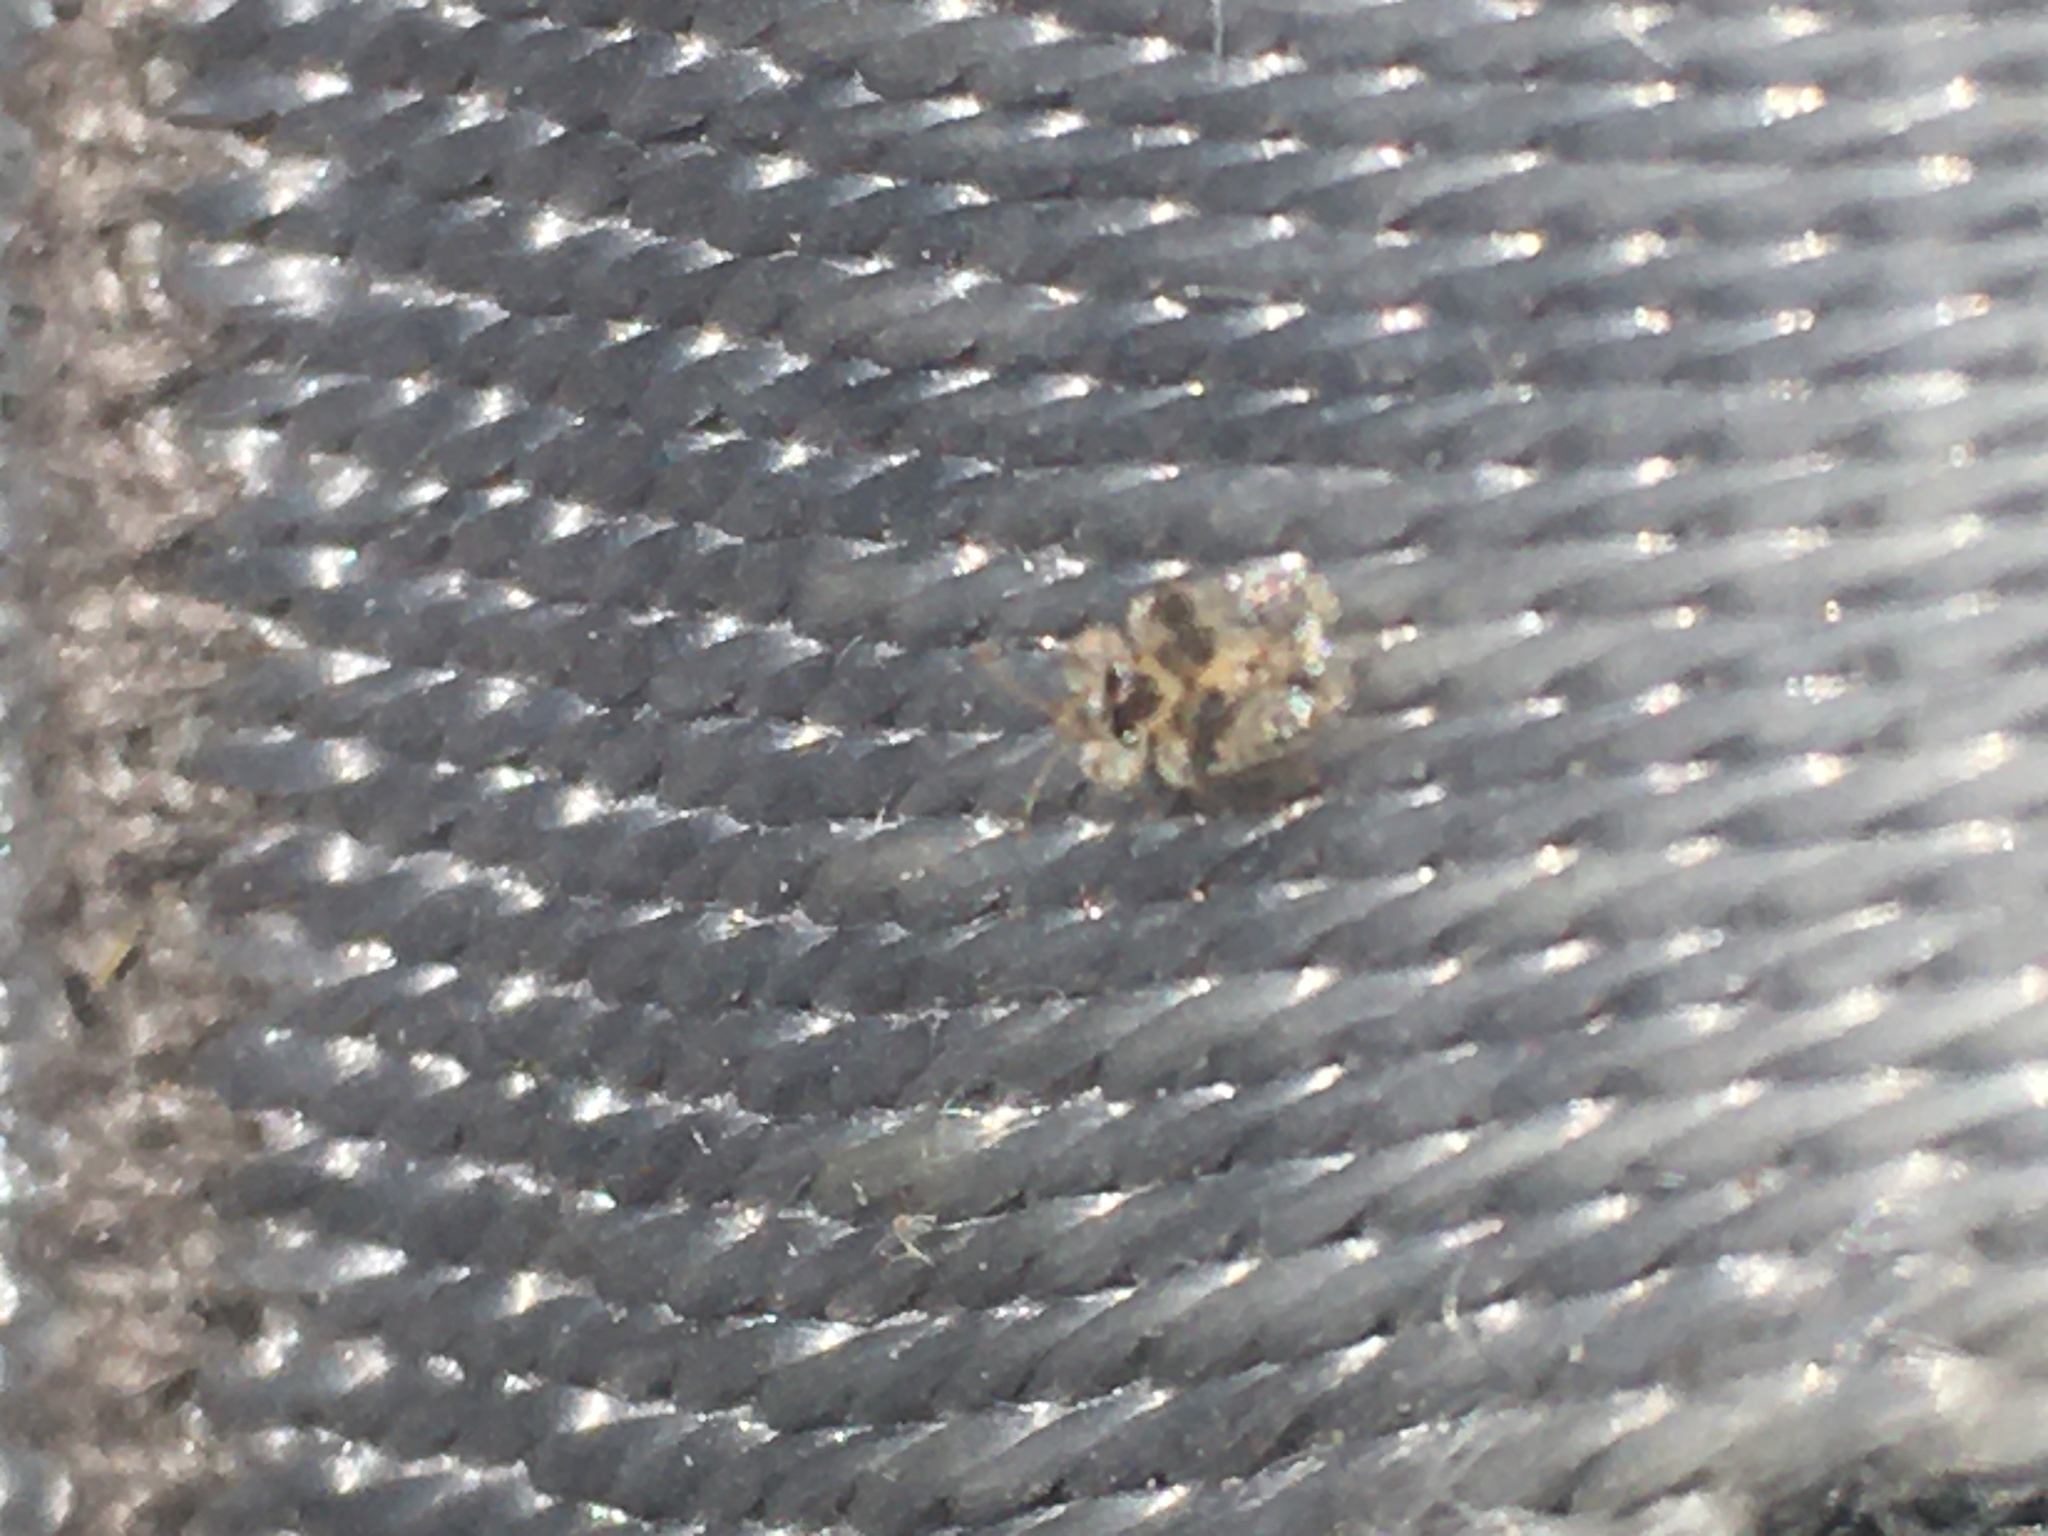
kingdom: Animalia
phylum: Arthropoda
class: Insecta
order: Hemiptera
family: Tingidae
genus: Corythucha
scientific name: Corythucha arcuata
